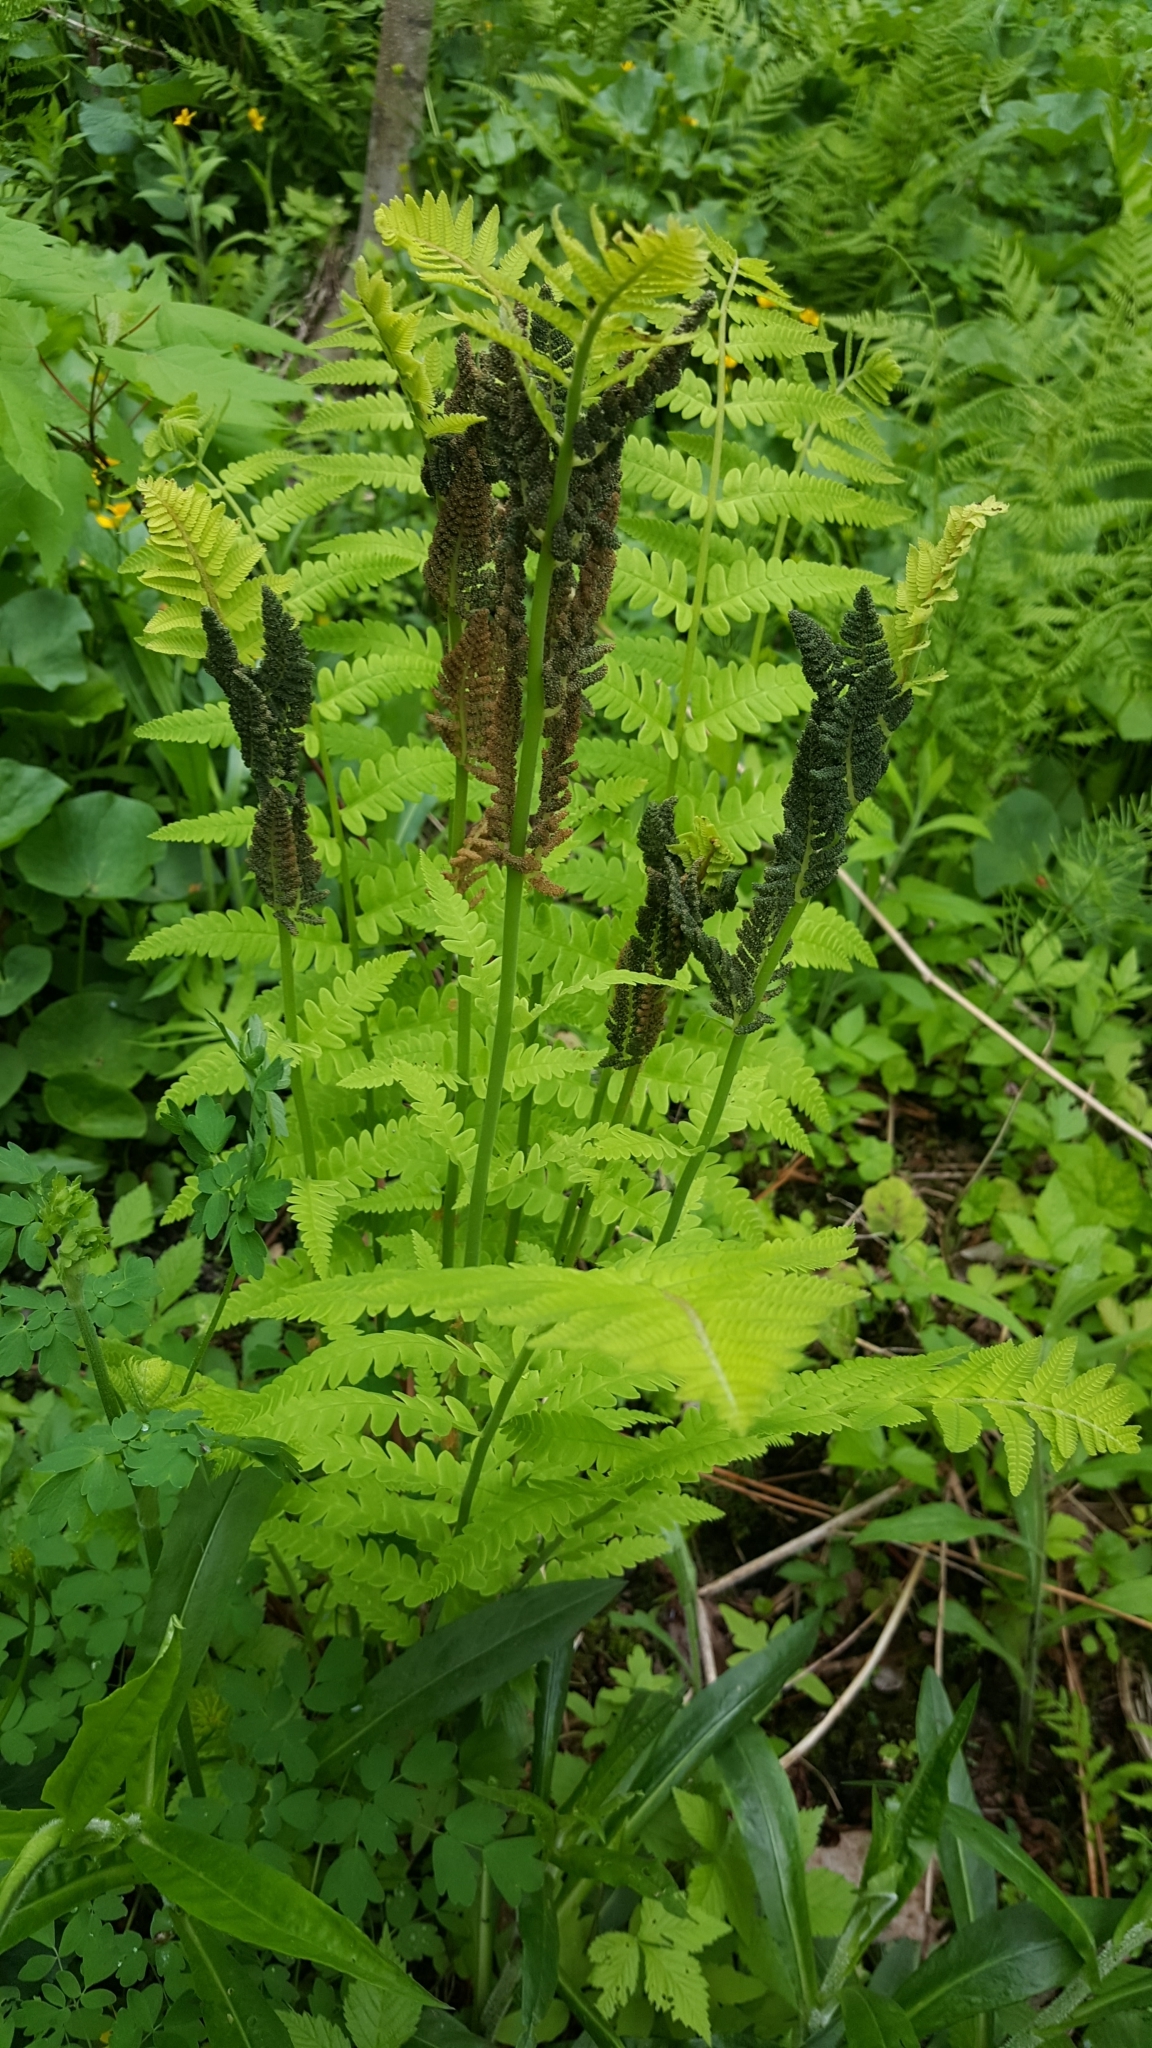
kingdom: Plantae
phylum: Tracheophyta
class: Polypodiopsida
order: Osmundales
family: Osmundaceae
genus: Claytosmunda
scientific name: Claytosmunda claytoniana
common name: Clayton's fern
